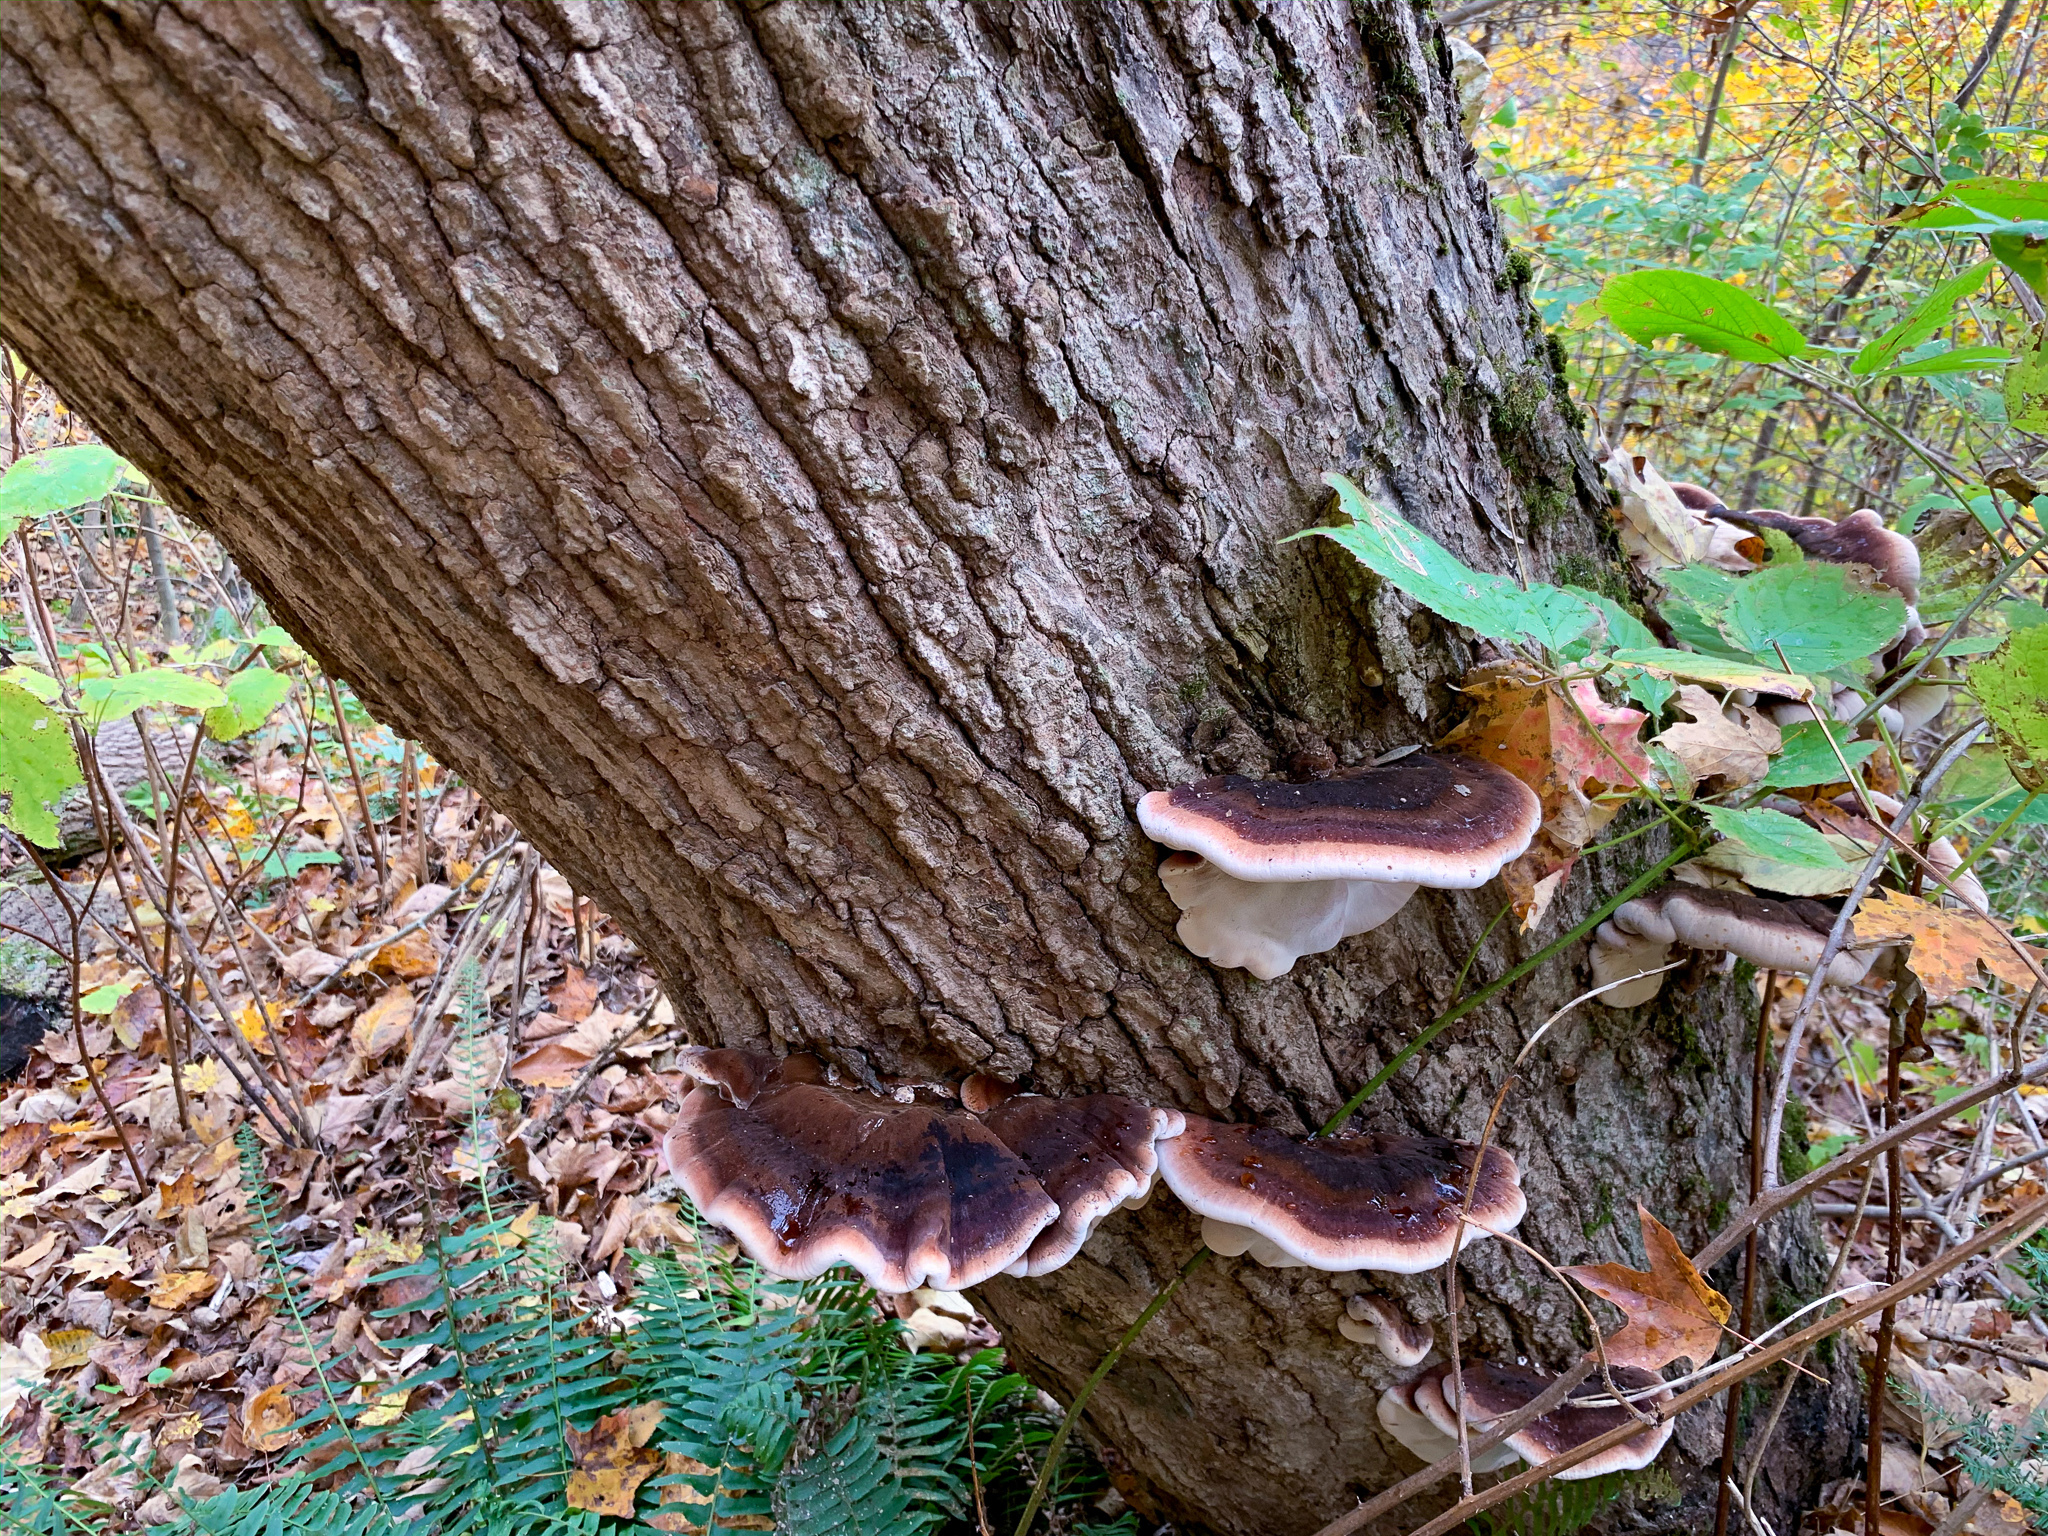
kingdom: Fungi
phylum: Basidiomycota
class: Agaricomycetes
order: Polyporales
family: Ischnodermataceae
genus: Ischnoderma
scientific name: Ischnoderma resinosum
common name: Resinous polypore
